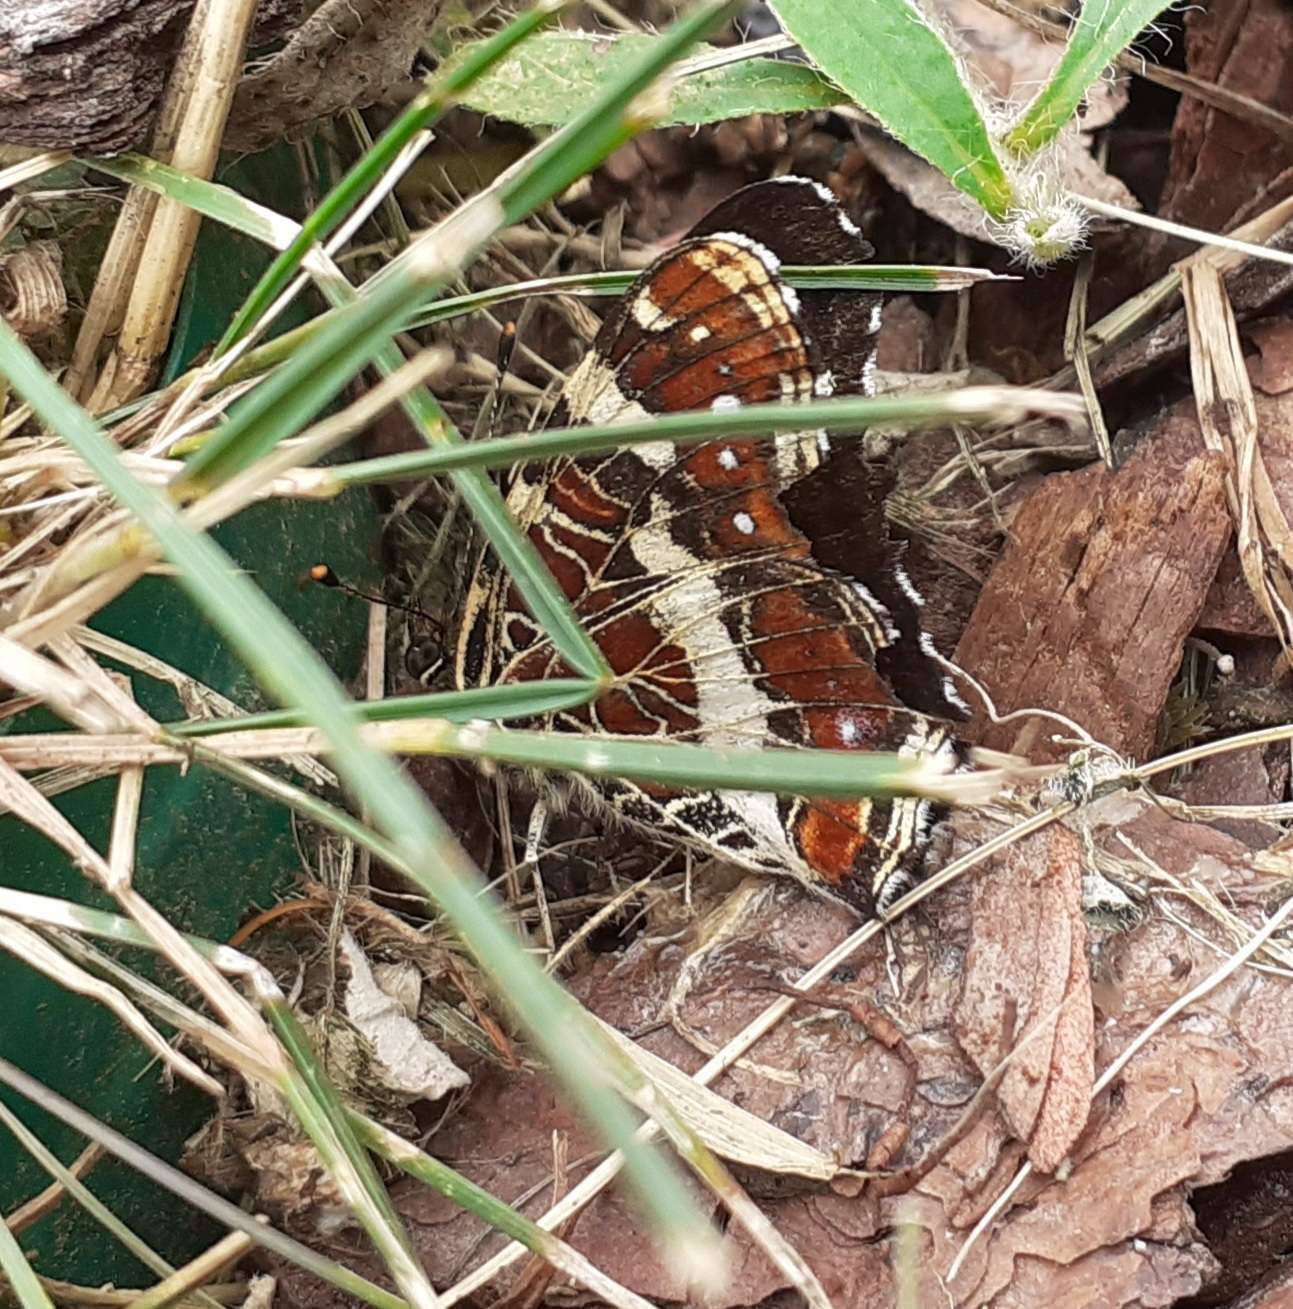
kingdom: Animalia
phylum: Arthropoda
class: Insecta
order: Lepidoptera
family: Nymphalidae
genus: Araschnia
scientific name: Araschnia levana
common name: Map butterfly
